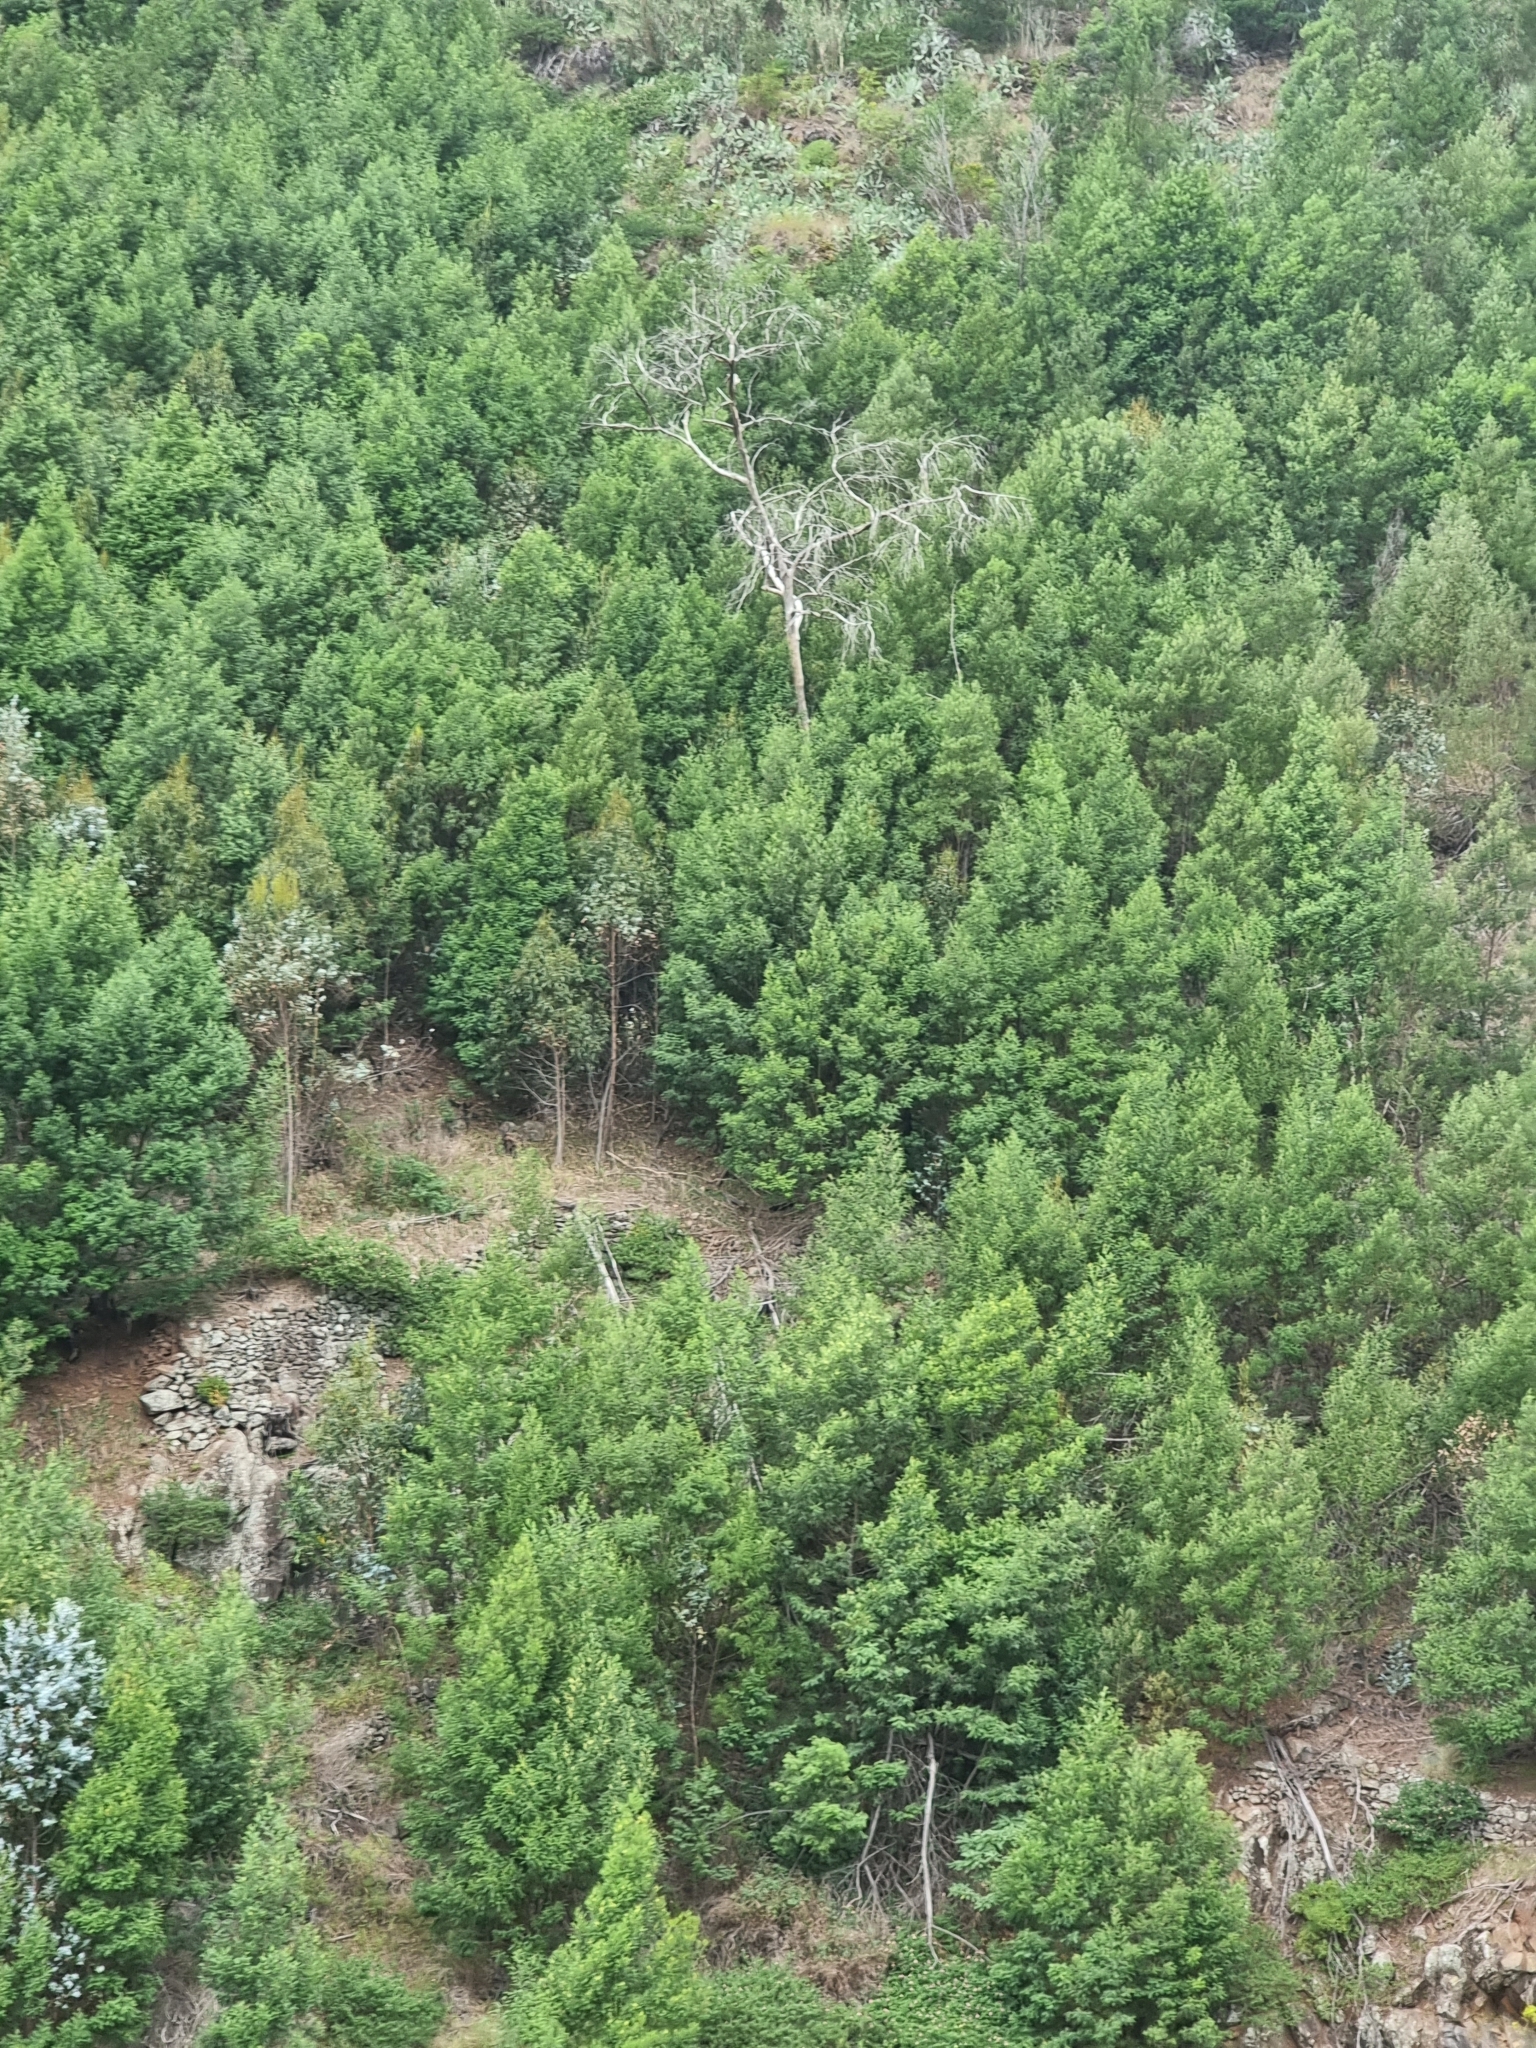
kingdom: Plantae
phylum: Tracheophyta
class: Magnoliopsida
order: Fabales
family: Fabaceae
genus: Acacia
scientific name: Acacia mearnsii
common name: Black wattle
